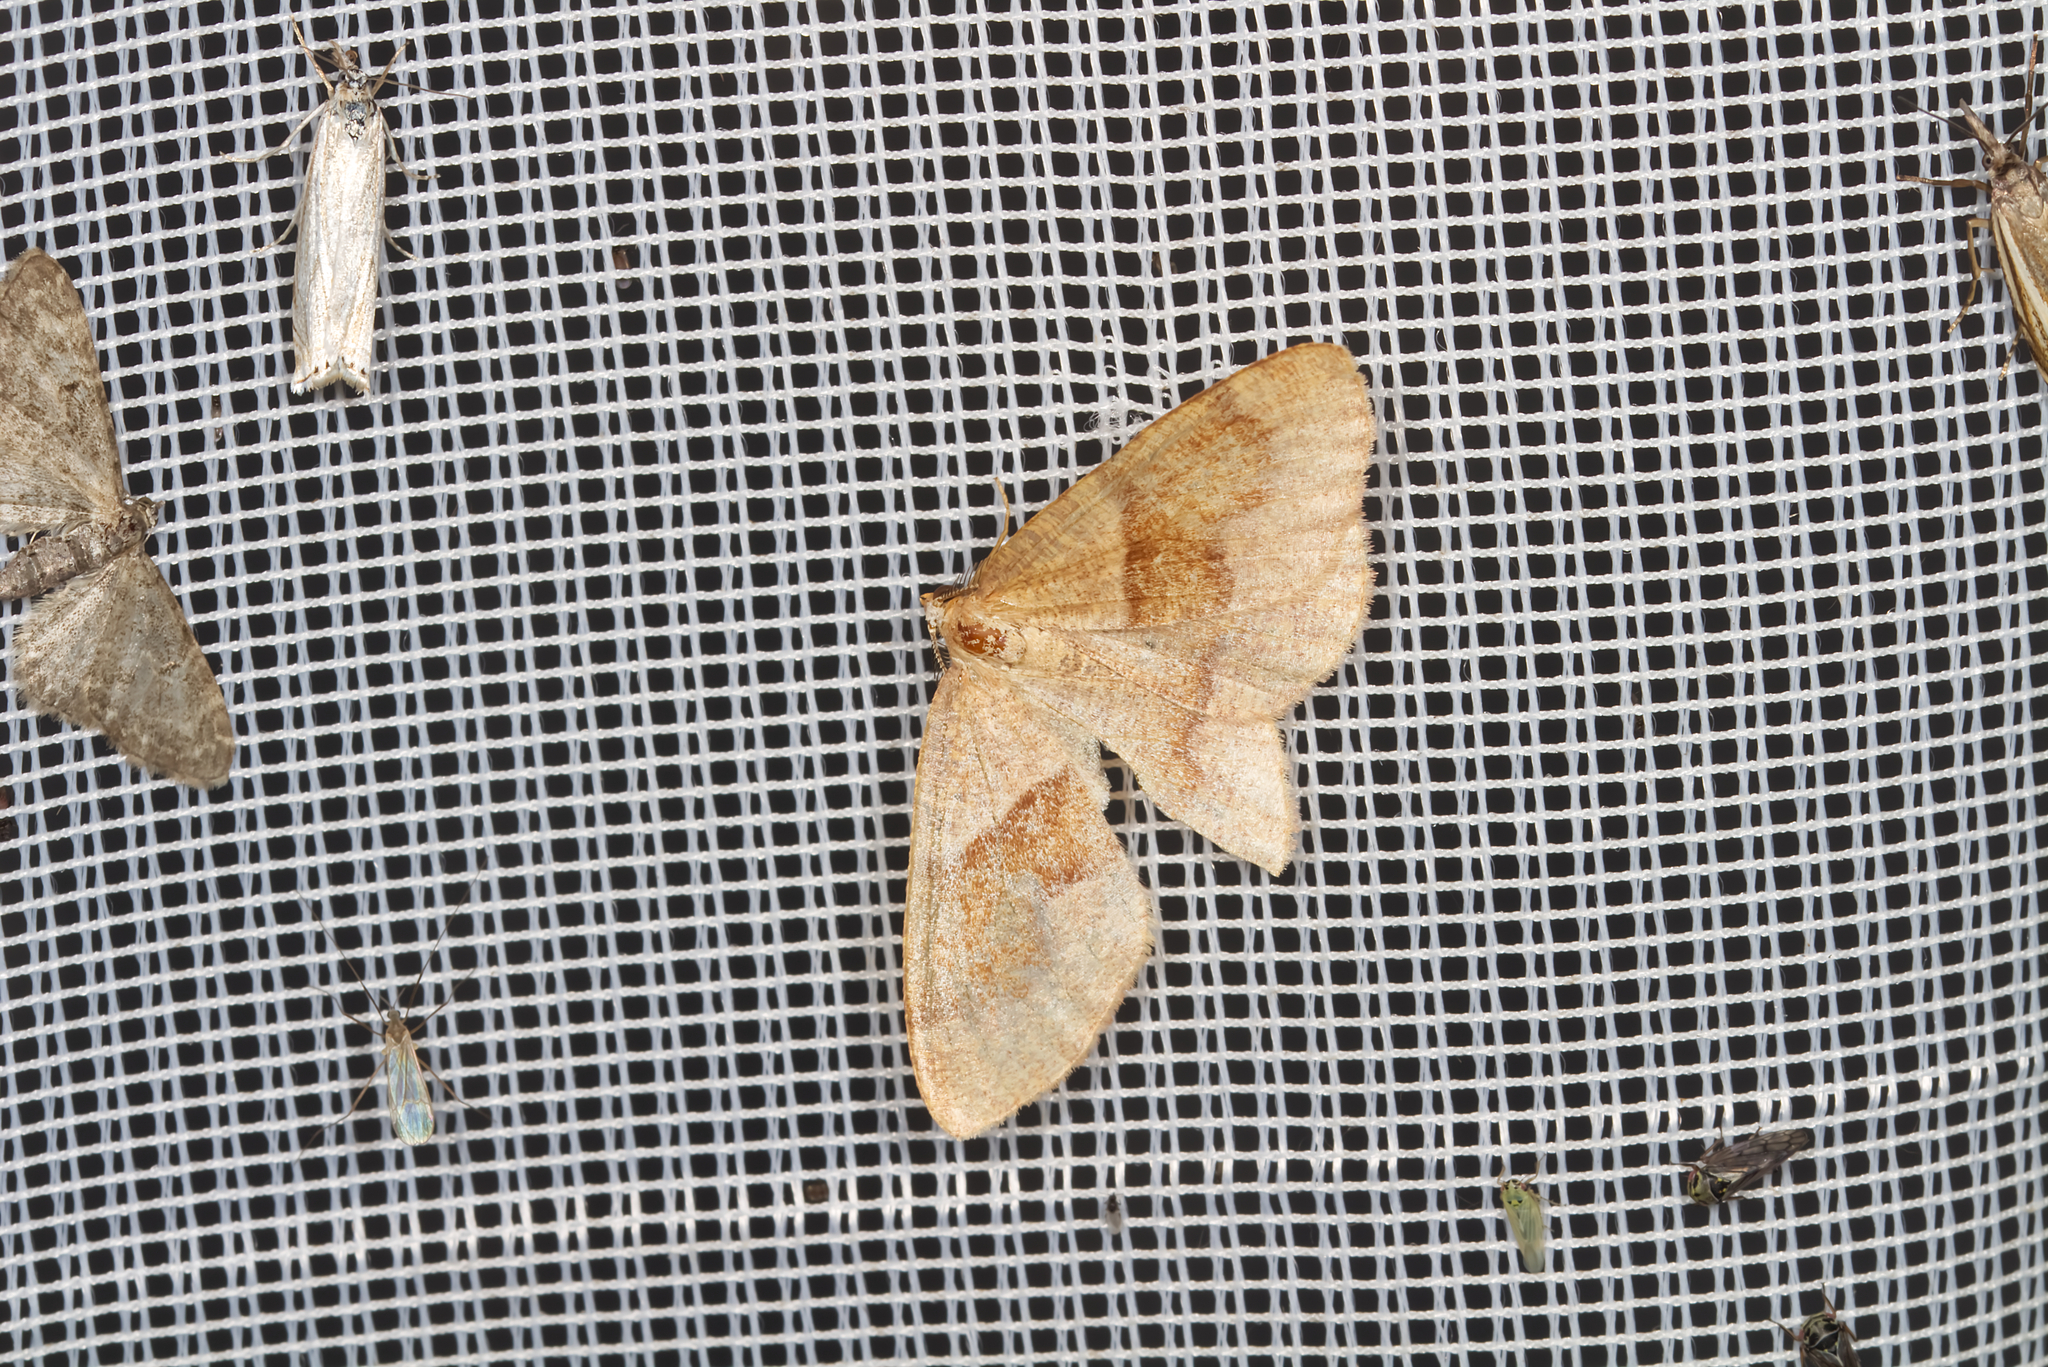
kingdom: Animalia
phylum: Arthropoda
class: Insecta
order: Lepidoptera
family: Geometridae
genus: Plagodis
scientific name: Plagodis pulveraria
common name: Barred umber
